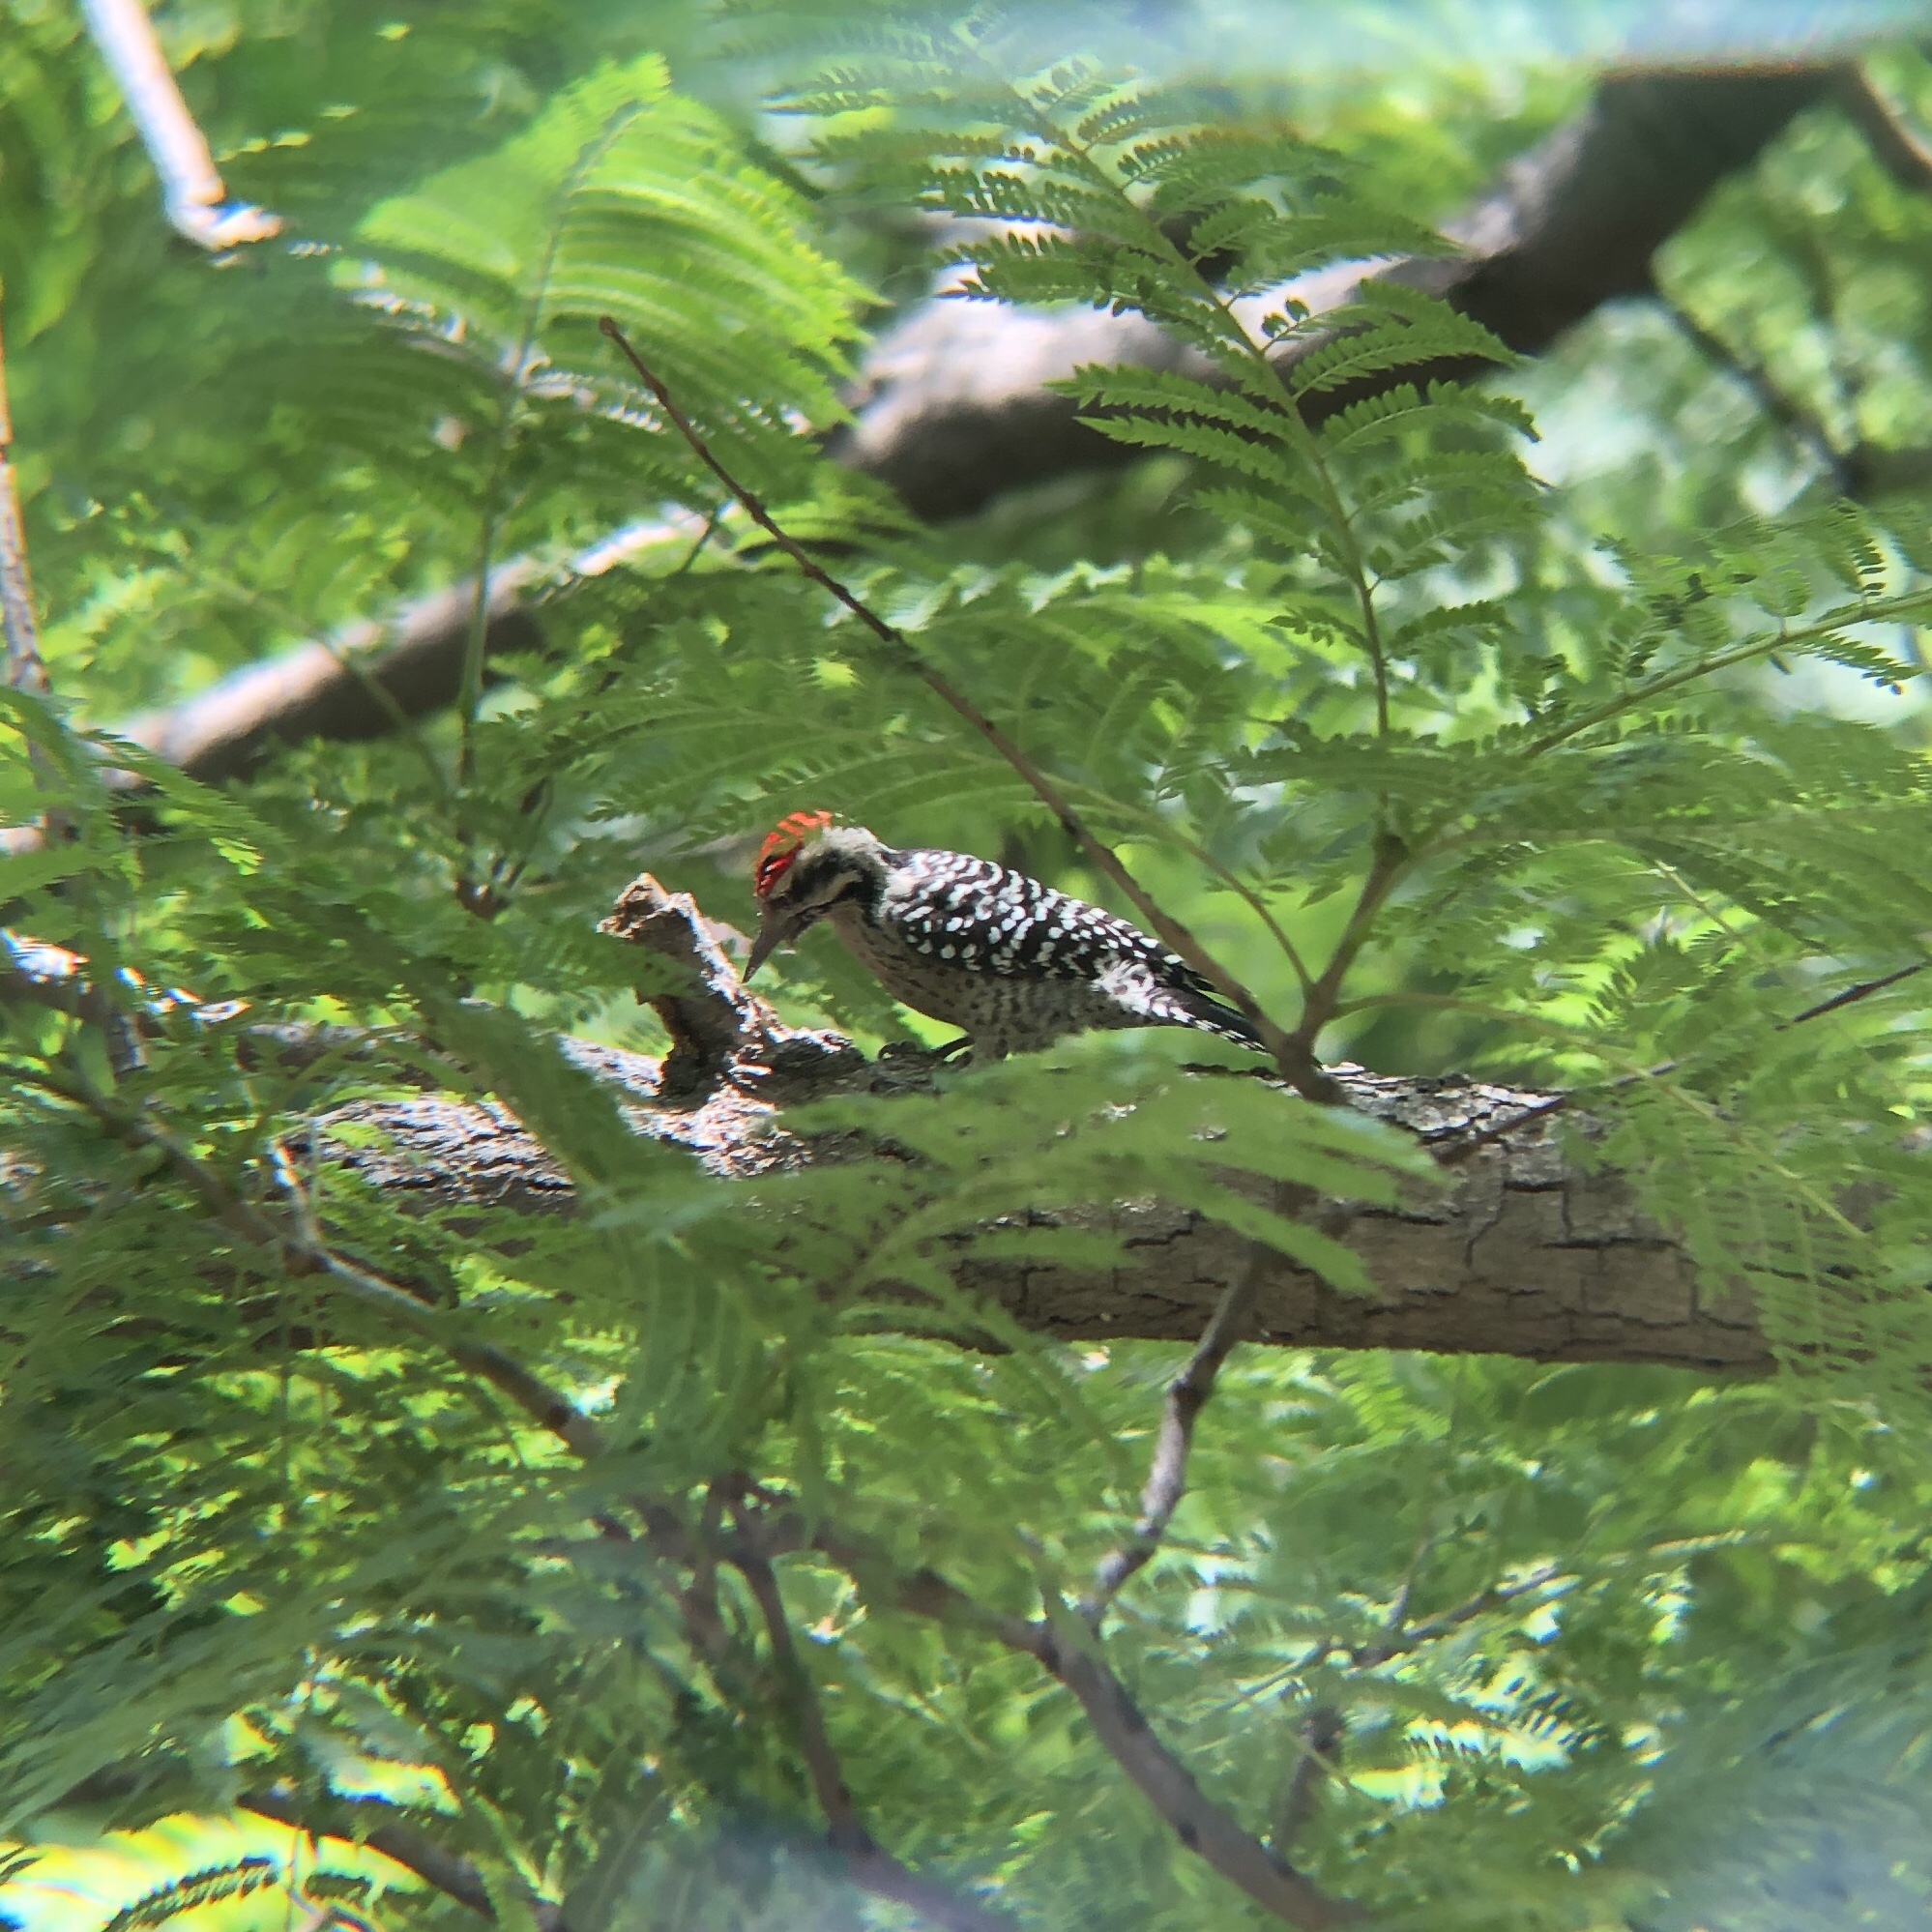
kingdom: Animalia
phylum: Chordata
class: Aves
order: Piciformes
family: Picidae
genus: Dryobates
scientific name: Dryobates scalaris
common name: Ladder-backed woodpecker
